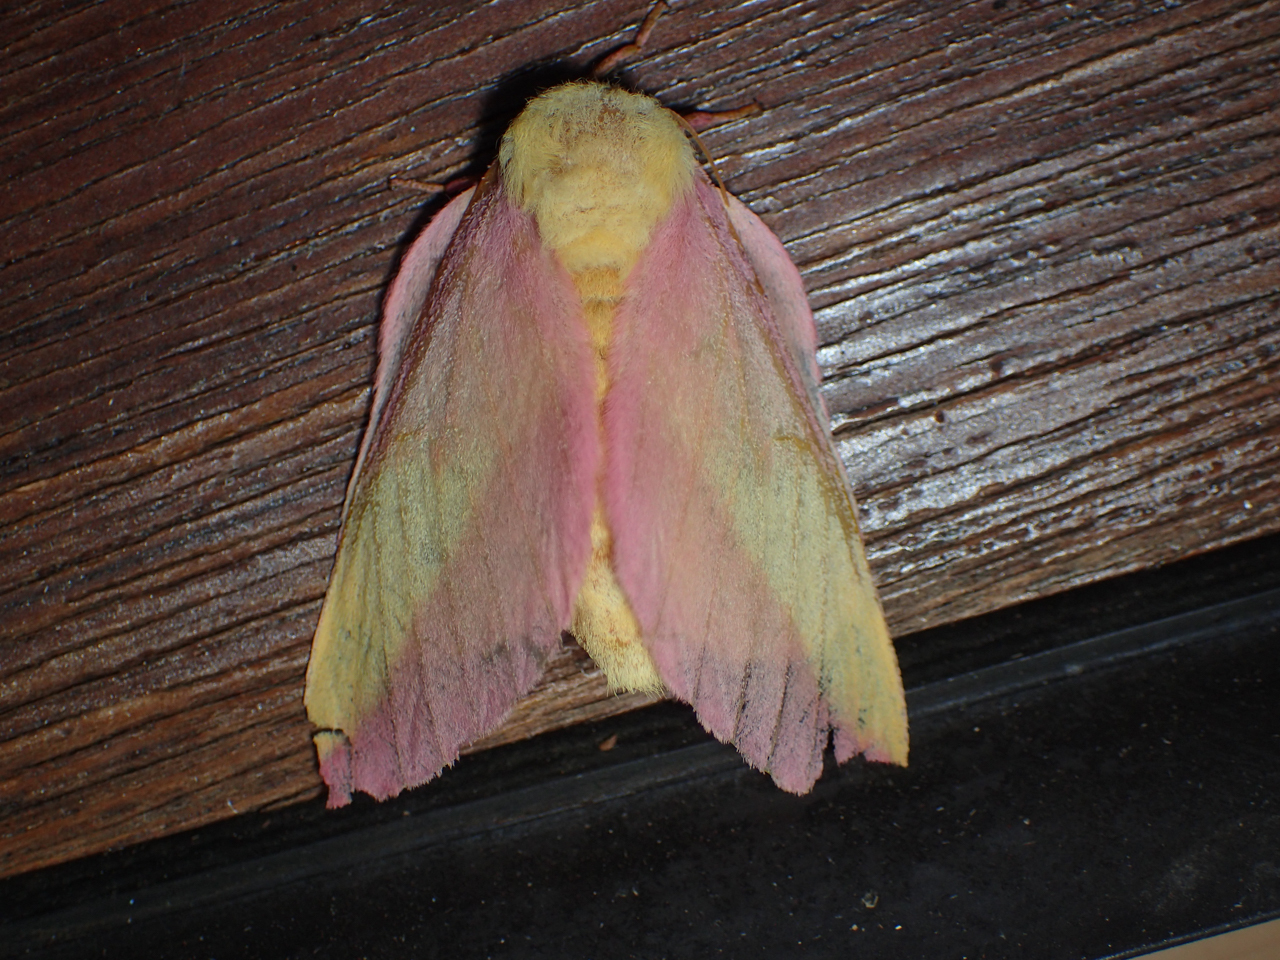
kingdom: Animalia
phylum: Arthropoda
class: Insecta
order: Lepidoptera
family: Saturniidae
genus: Dryocampa
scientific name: Dryocampa rubicunda
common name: Rosy maple moth
